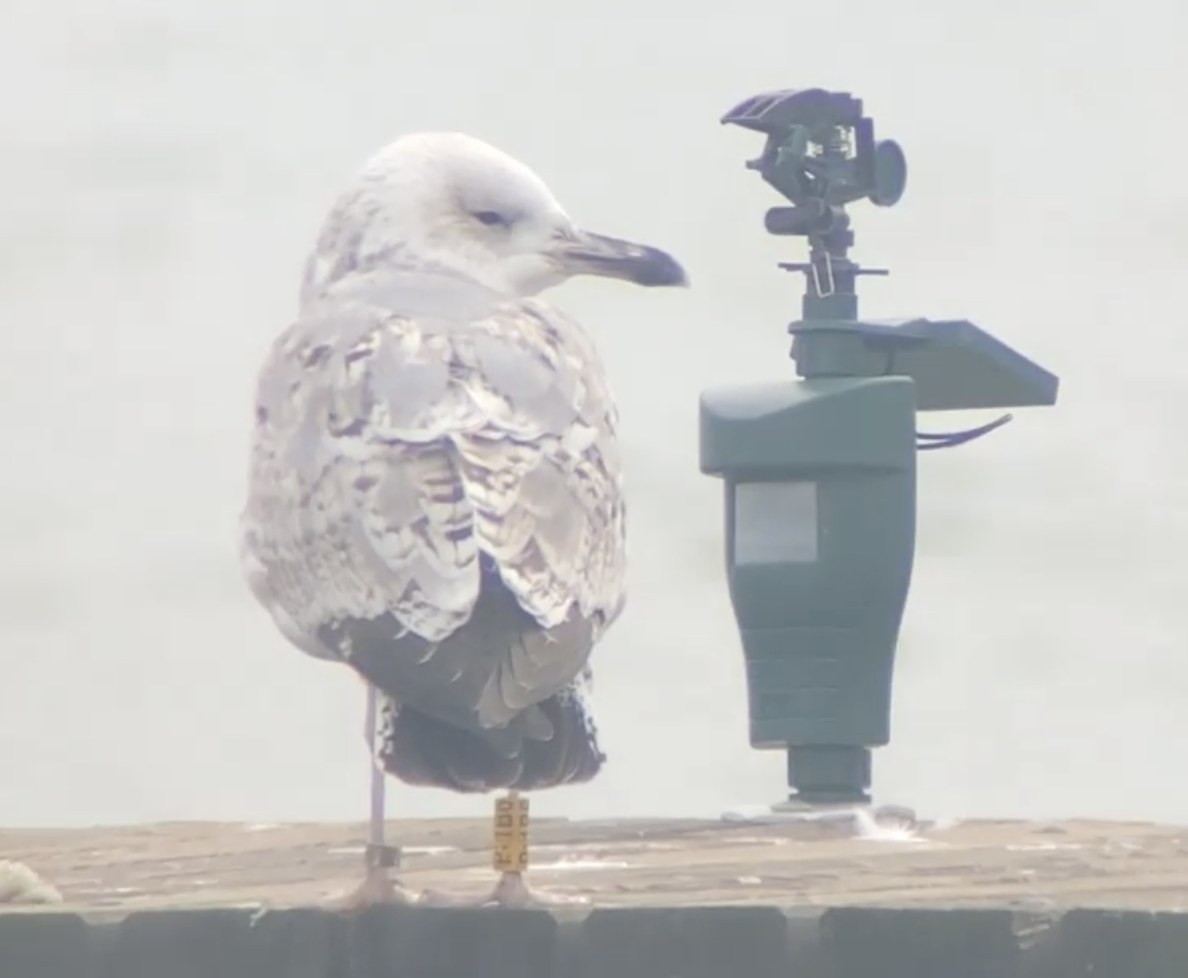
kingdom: Animalia
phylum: Chordata
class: Aves
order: Charadriiformes
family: Laridae
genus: Larus
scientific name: Larus cachinnans
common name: Caspian gull
